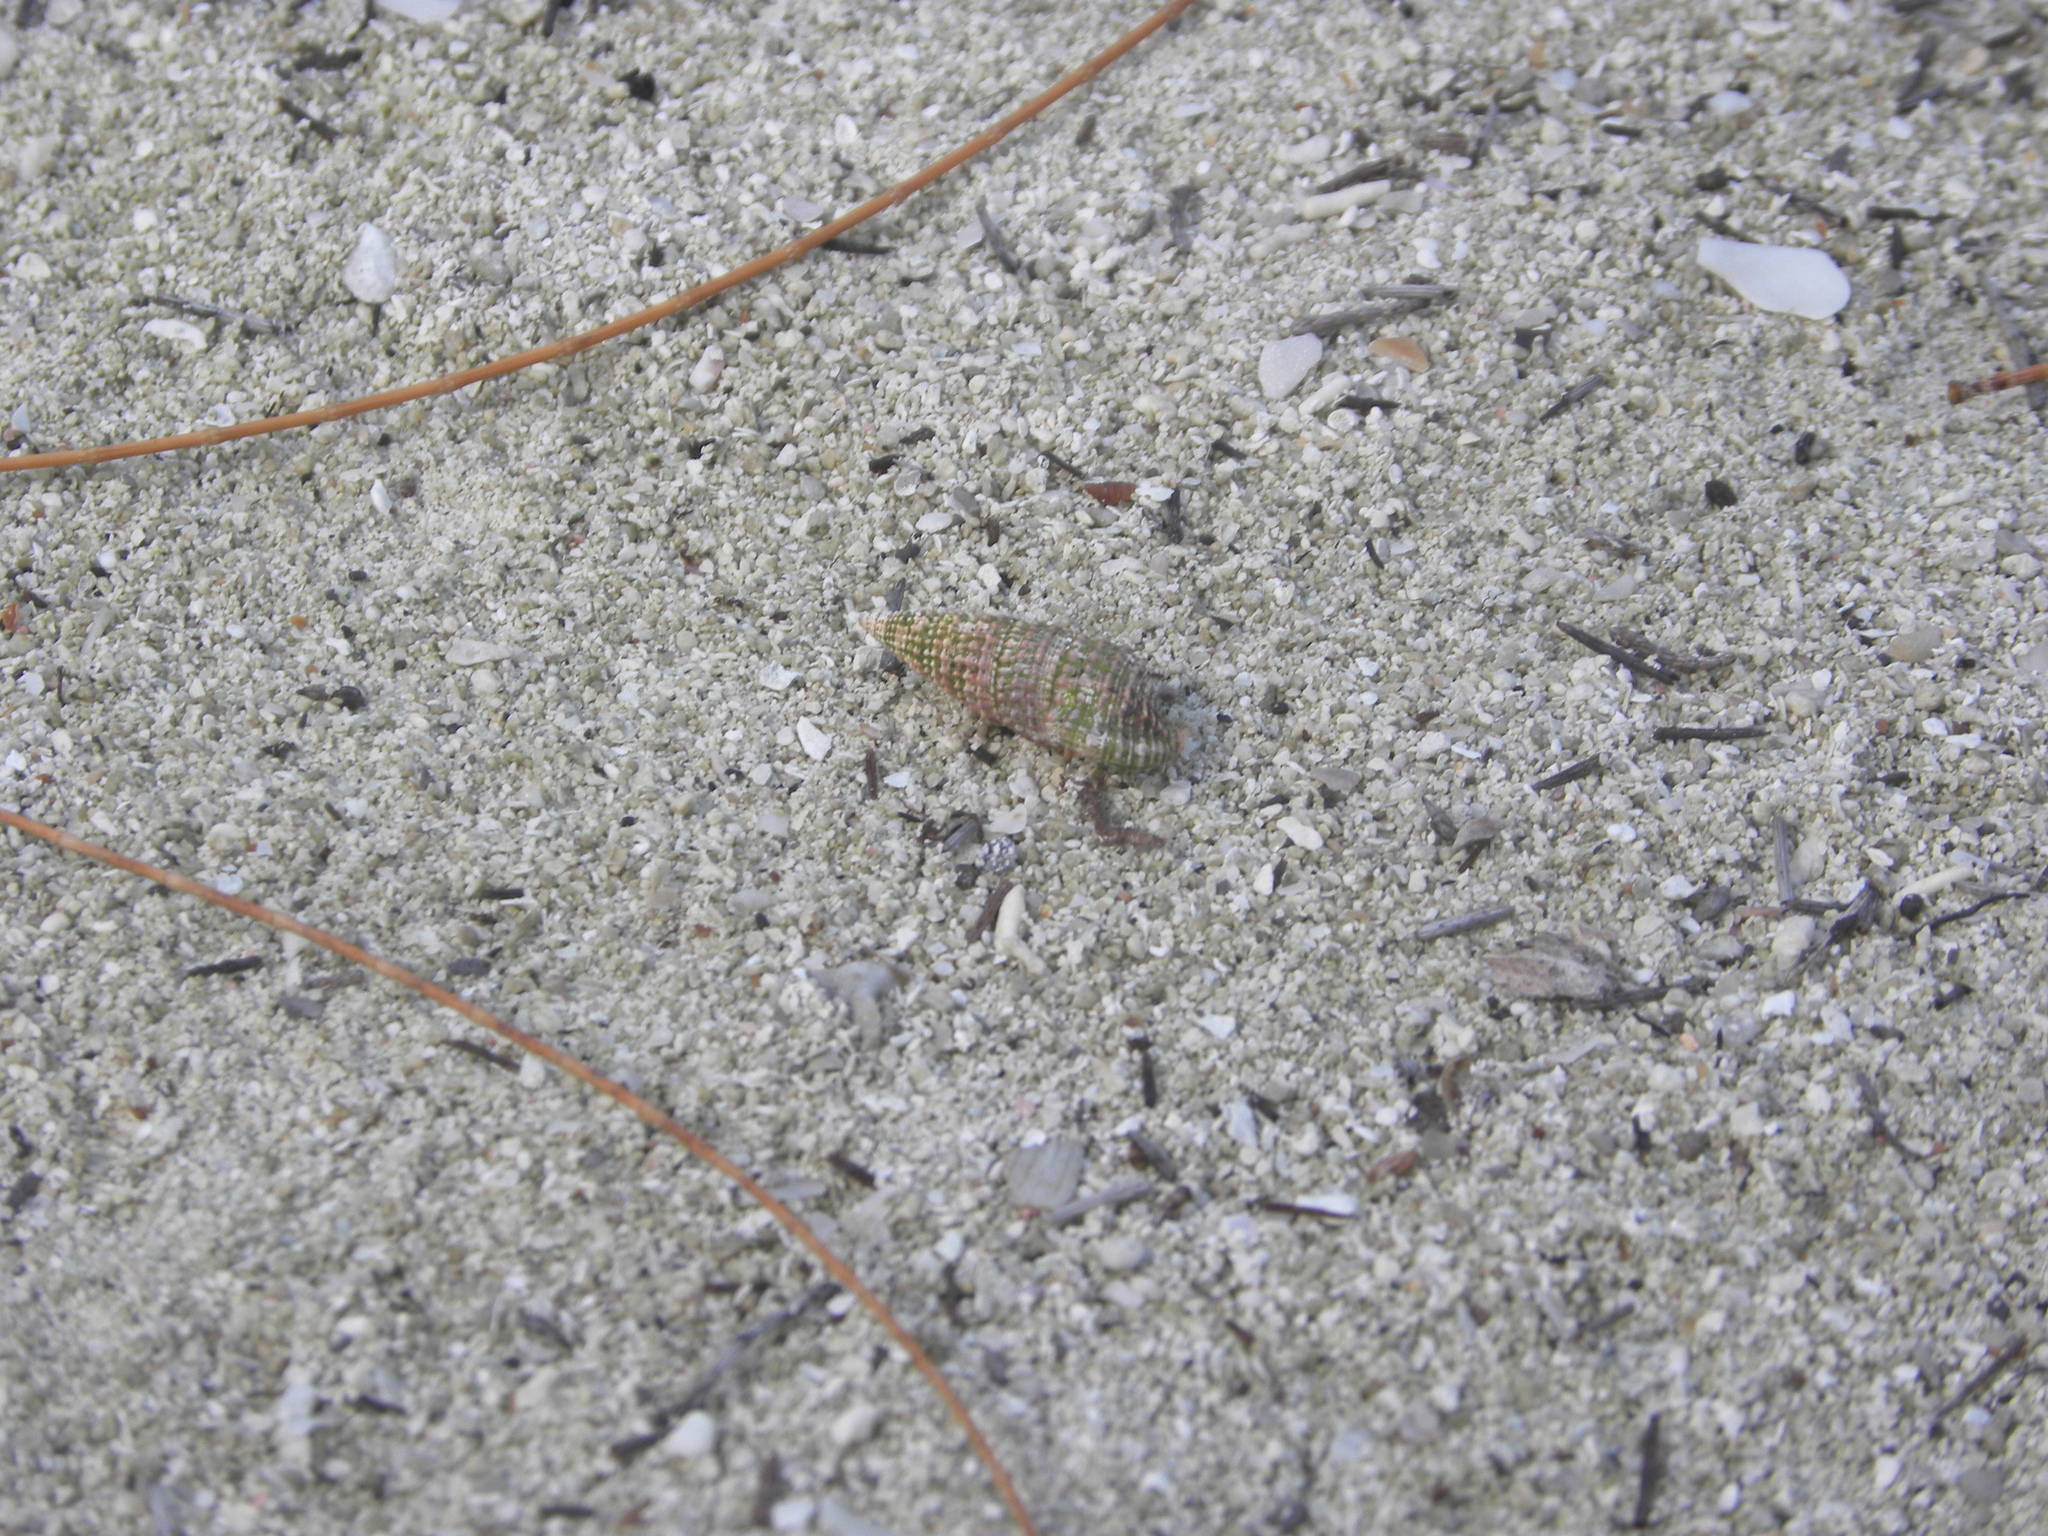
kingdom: Animalia
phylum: Arthropoda
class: Malacostraca
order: Decapoda
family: Coenobitidae
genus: Coenobita
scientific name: Coenobita clypeatus
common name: Caribbean hermit crab
